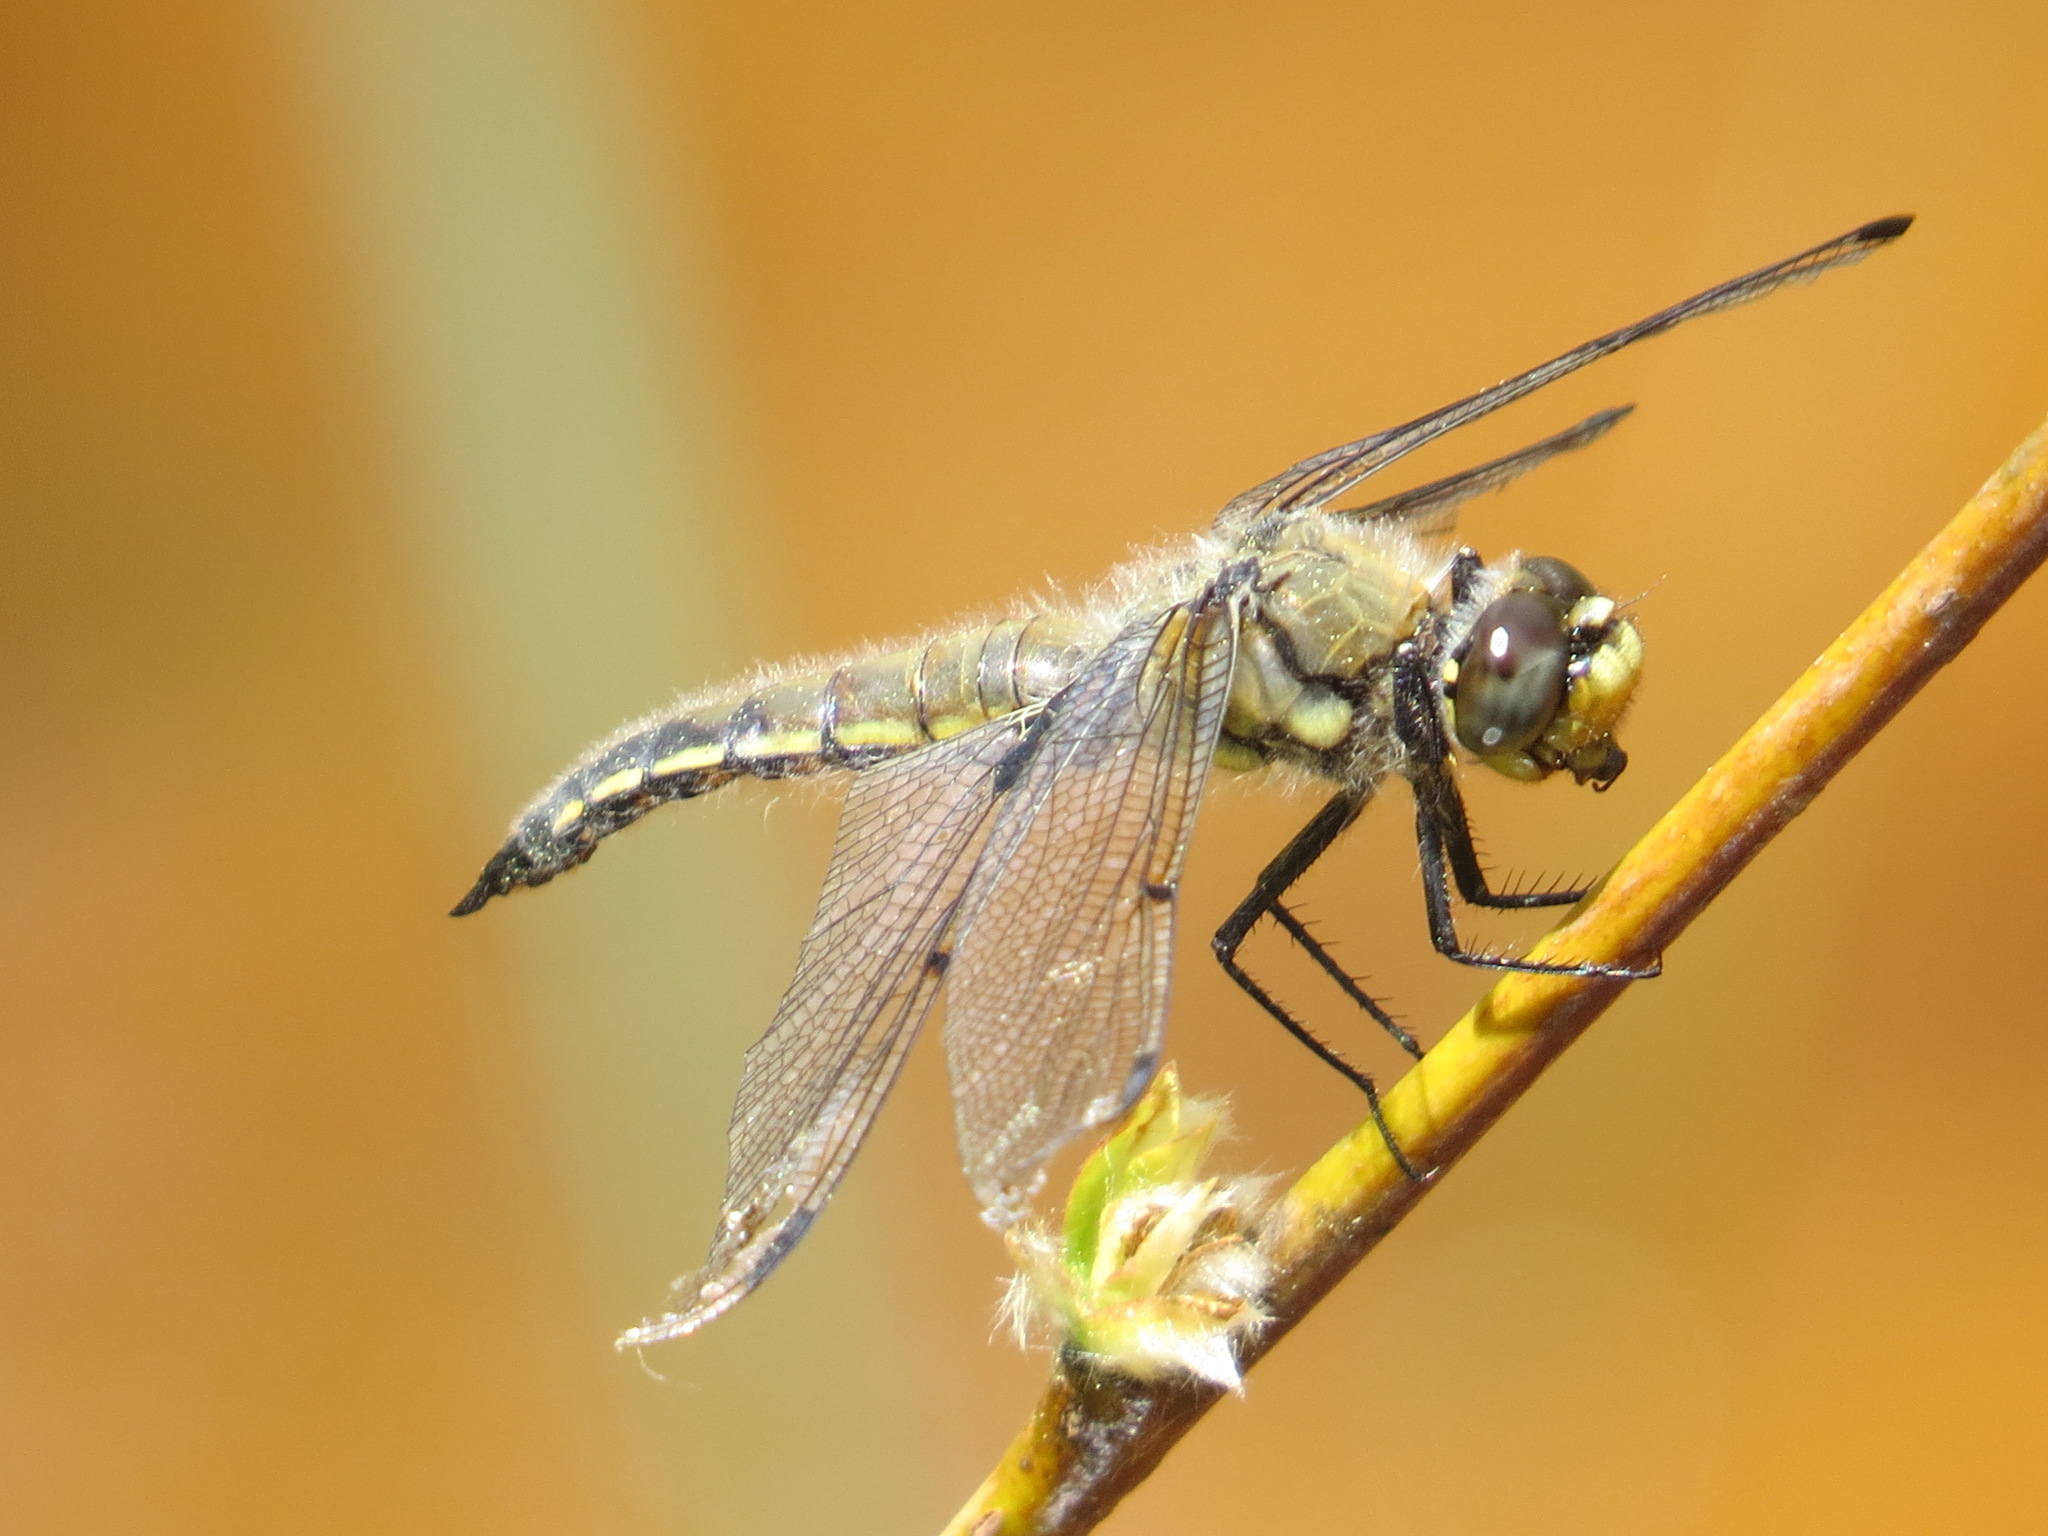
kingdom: Animalia
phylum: Arthropoda
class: Insecta
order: Odonata
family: Libellulidae
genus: Libellula
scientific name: Libellula quadrimaculata
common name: Four-spotted chaser
